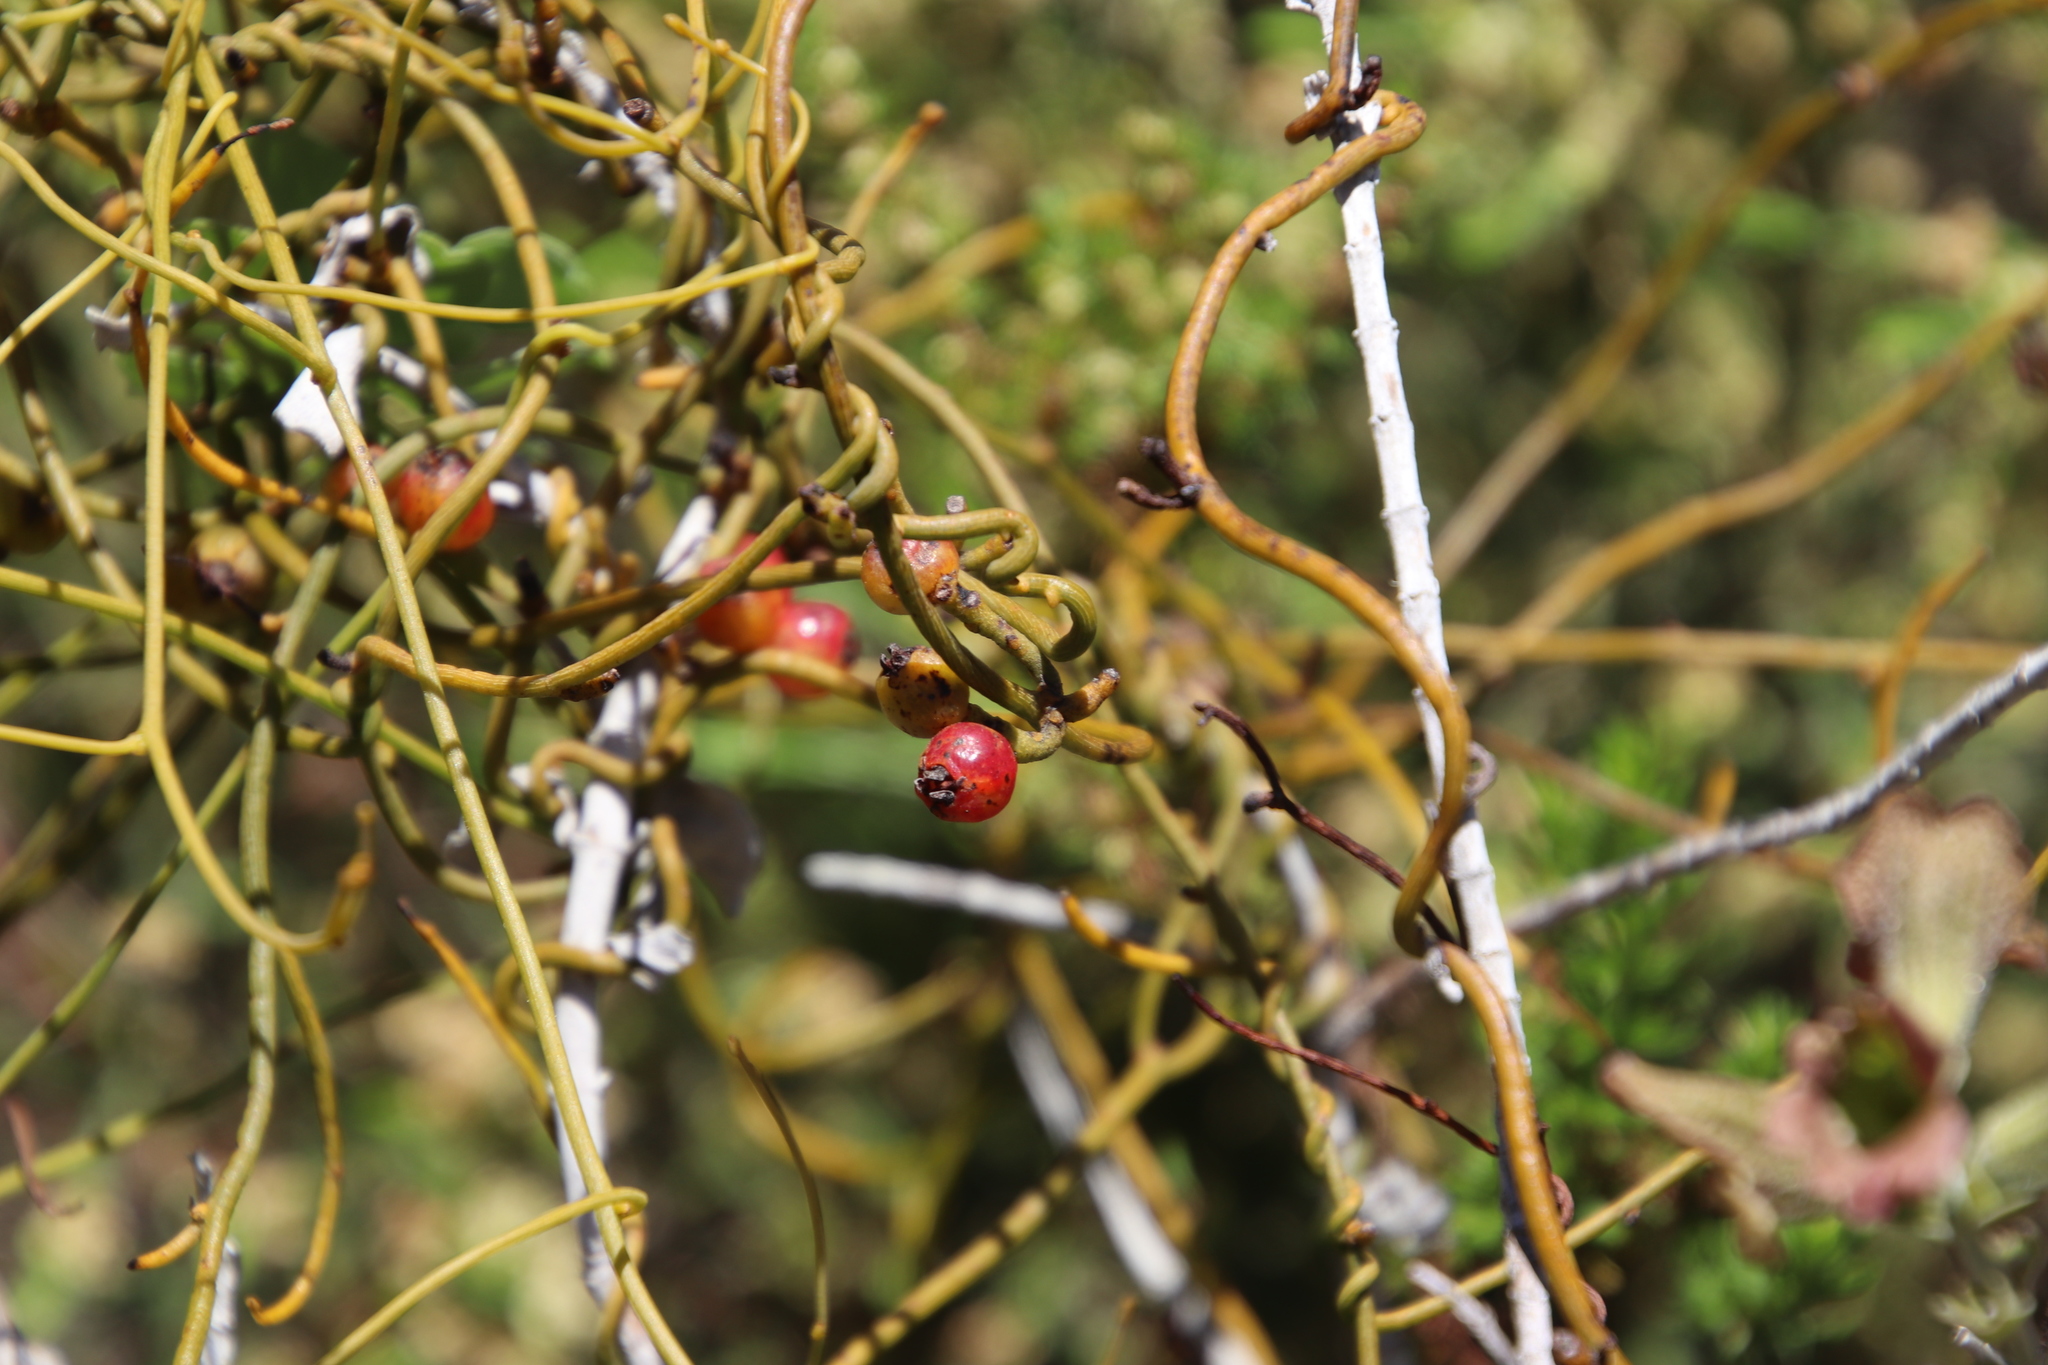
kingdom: Plantae
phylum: Tracheophyta
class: Magnoliopsida
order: Laurales
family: Lauraceae
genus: Cassytha
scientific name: Cassytha ciliolata
